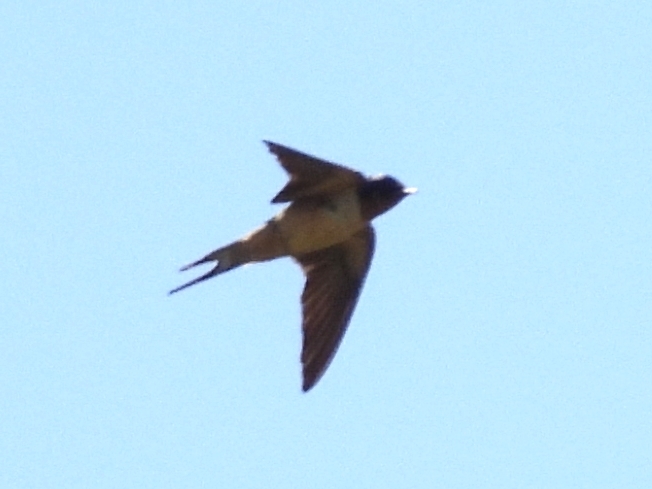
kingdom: Animalia
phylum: Chordata
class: Aves
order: Passeriformes
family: Hirundinidae
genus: Hirundo
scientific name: Hirundo rustica
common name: Barn swallow
